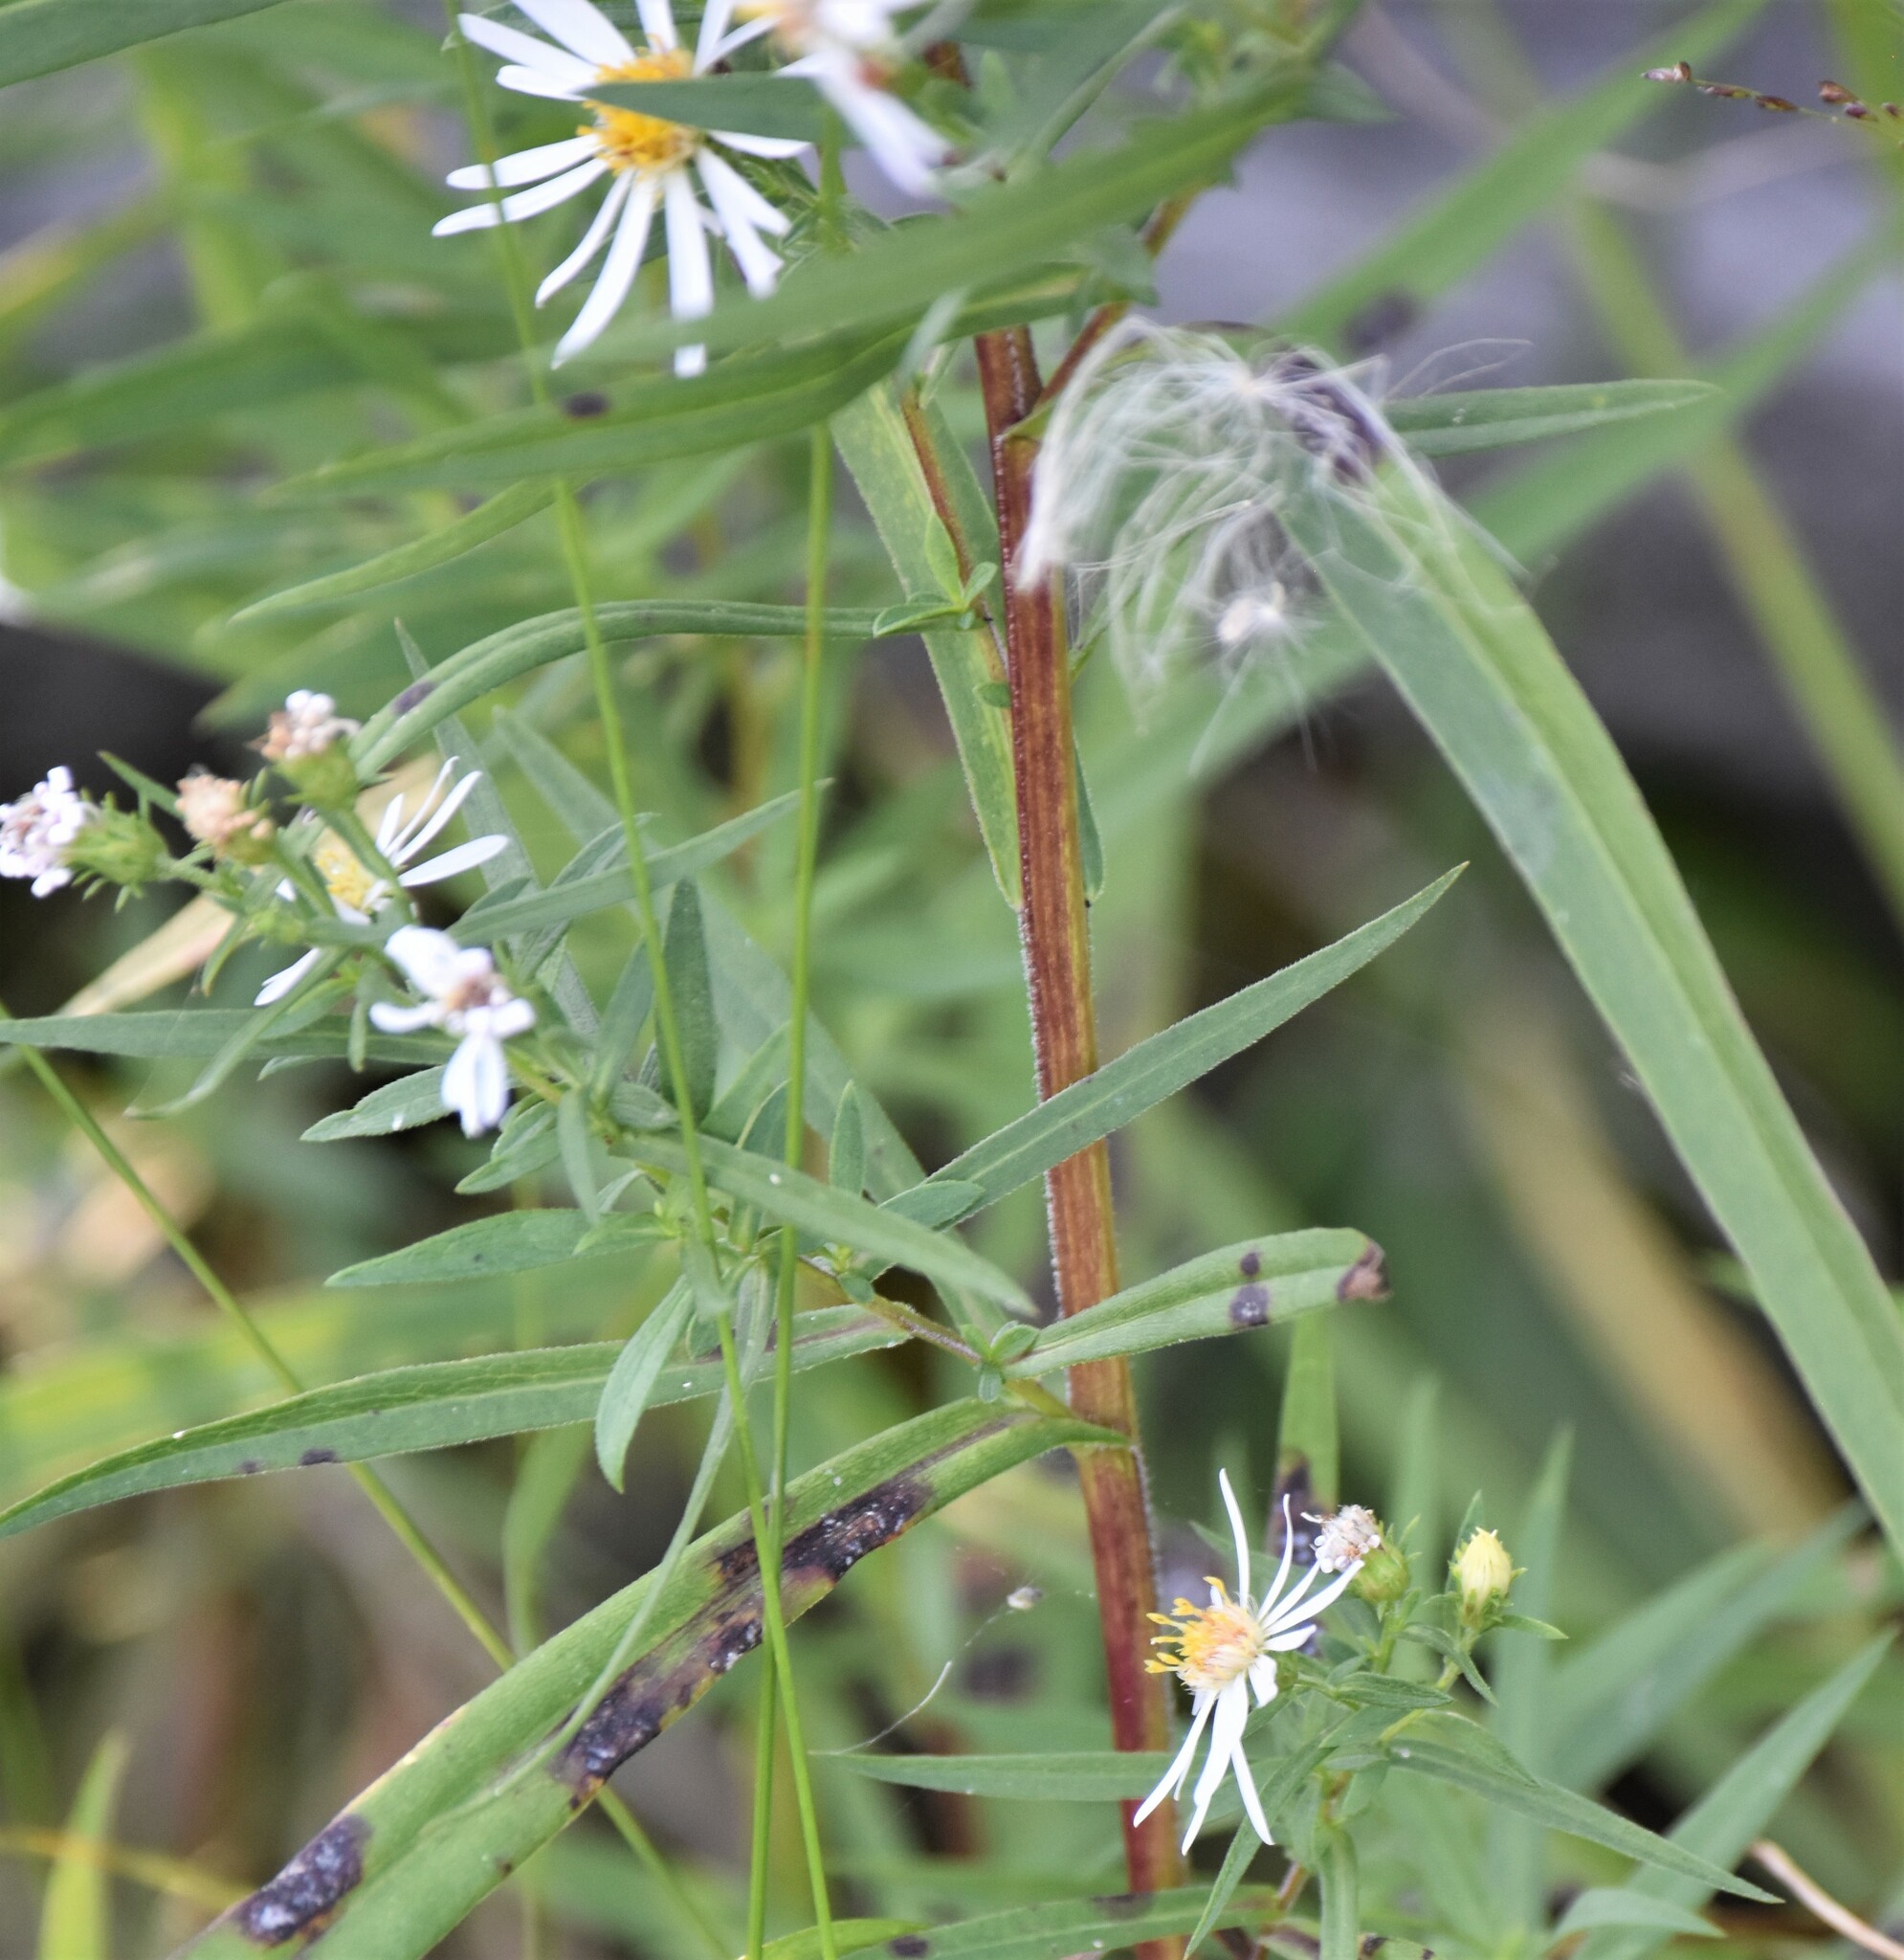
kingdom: Plantae
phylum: Tracheophyta
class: Magnoliopsida
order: Asterales
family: Asteraceae
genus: Symphyotrichum
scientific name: Symphyotrichum lanceolatum
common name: Panicled aster
